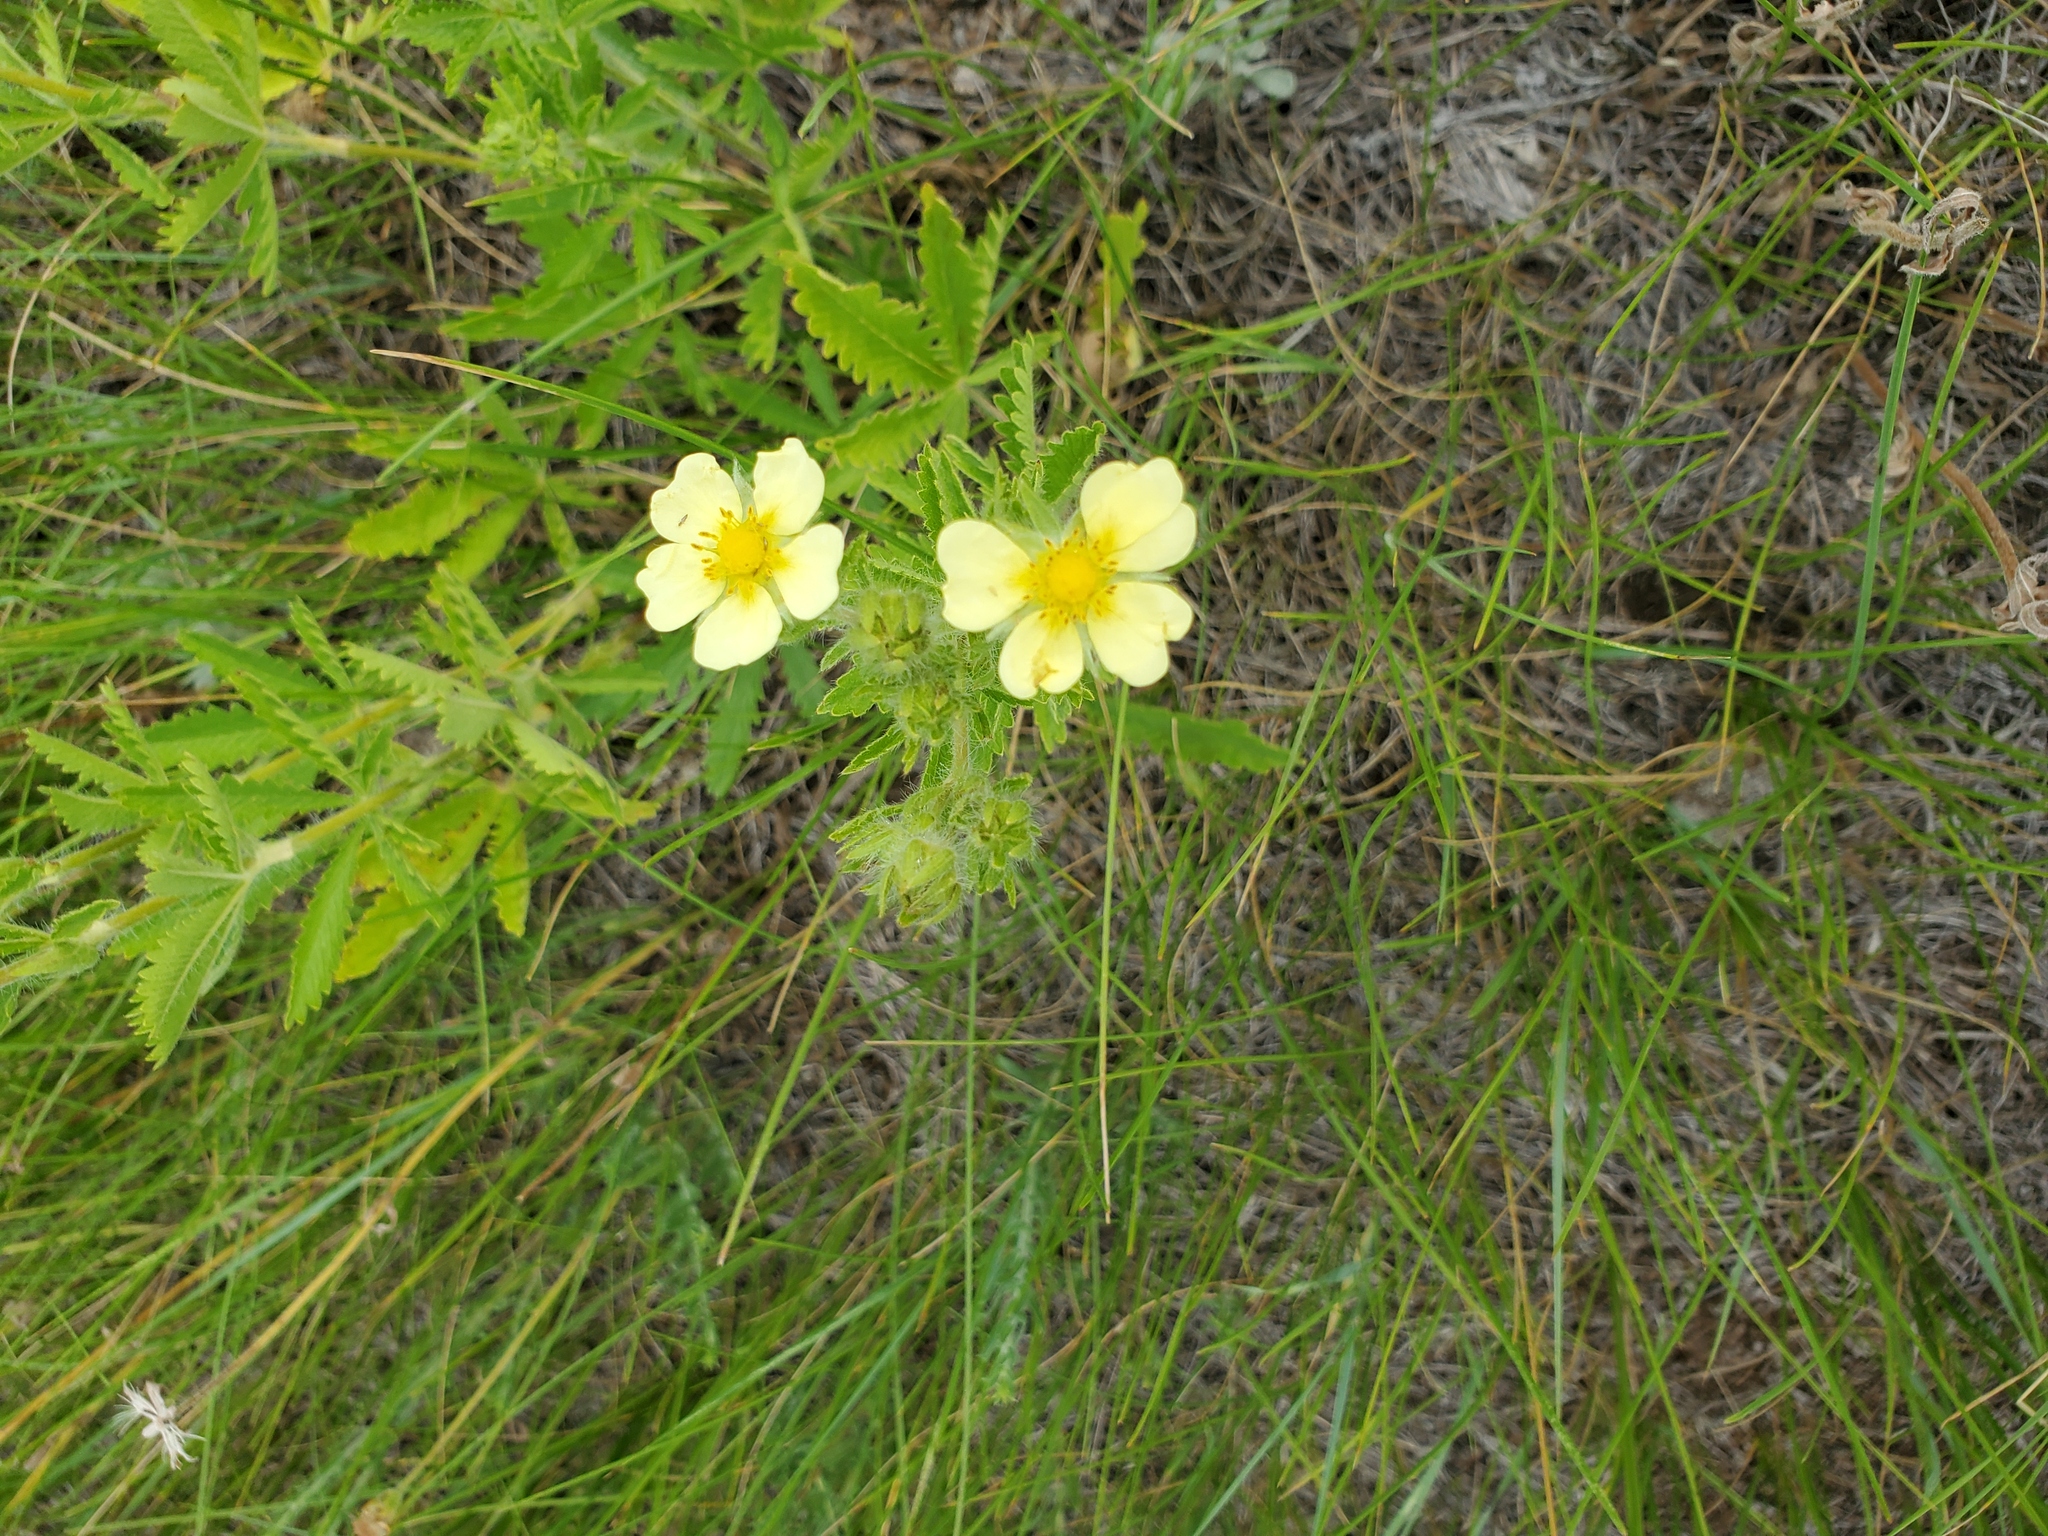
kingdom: Plantae
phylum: Tracheophyta
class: Magnoliopsida
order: Rosales
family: Rosaceae
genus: Potentilla
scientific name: Potentilla recta
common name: Sulphur cinquefoil
